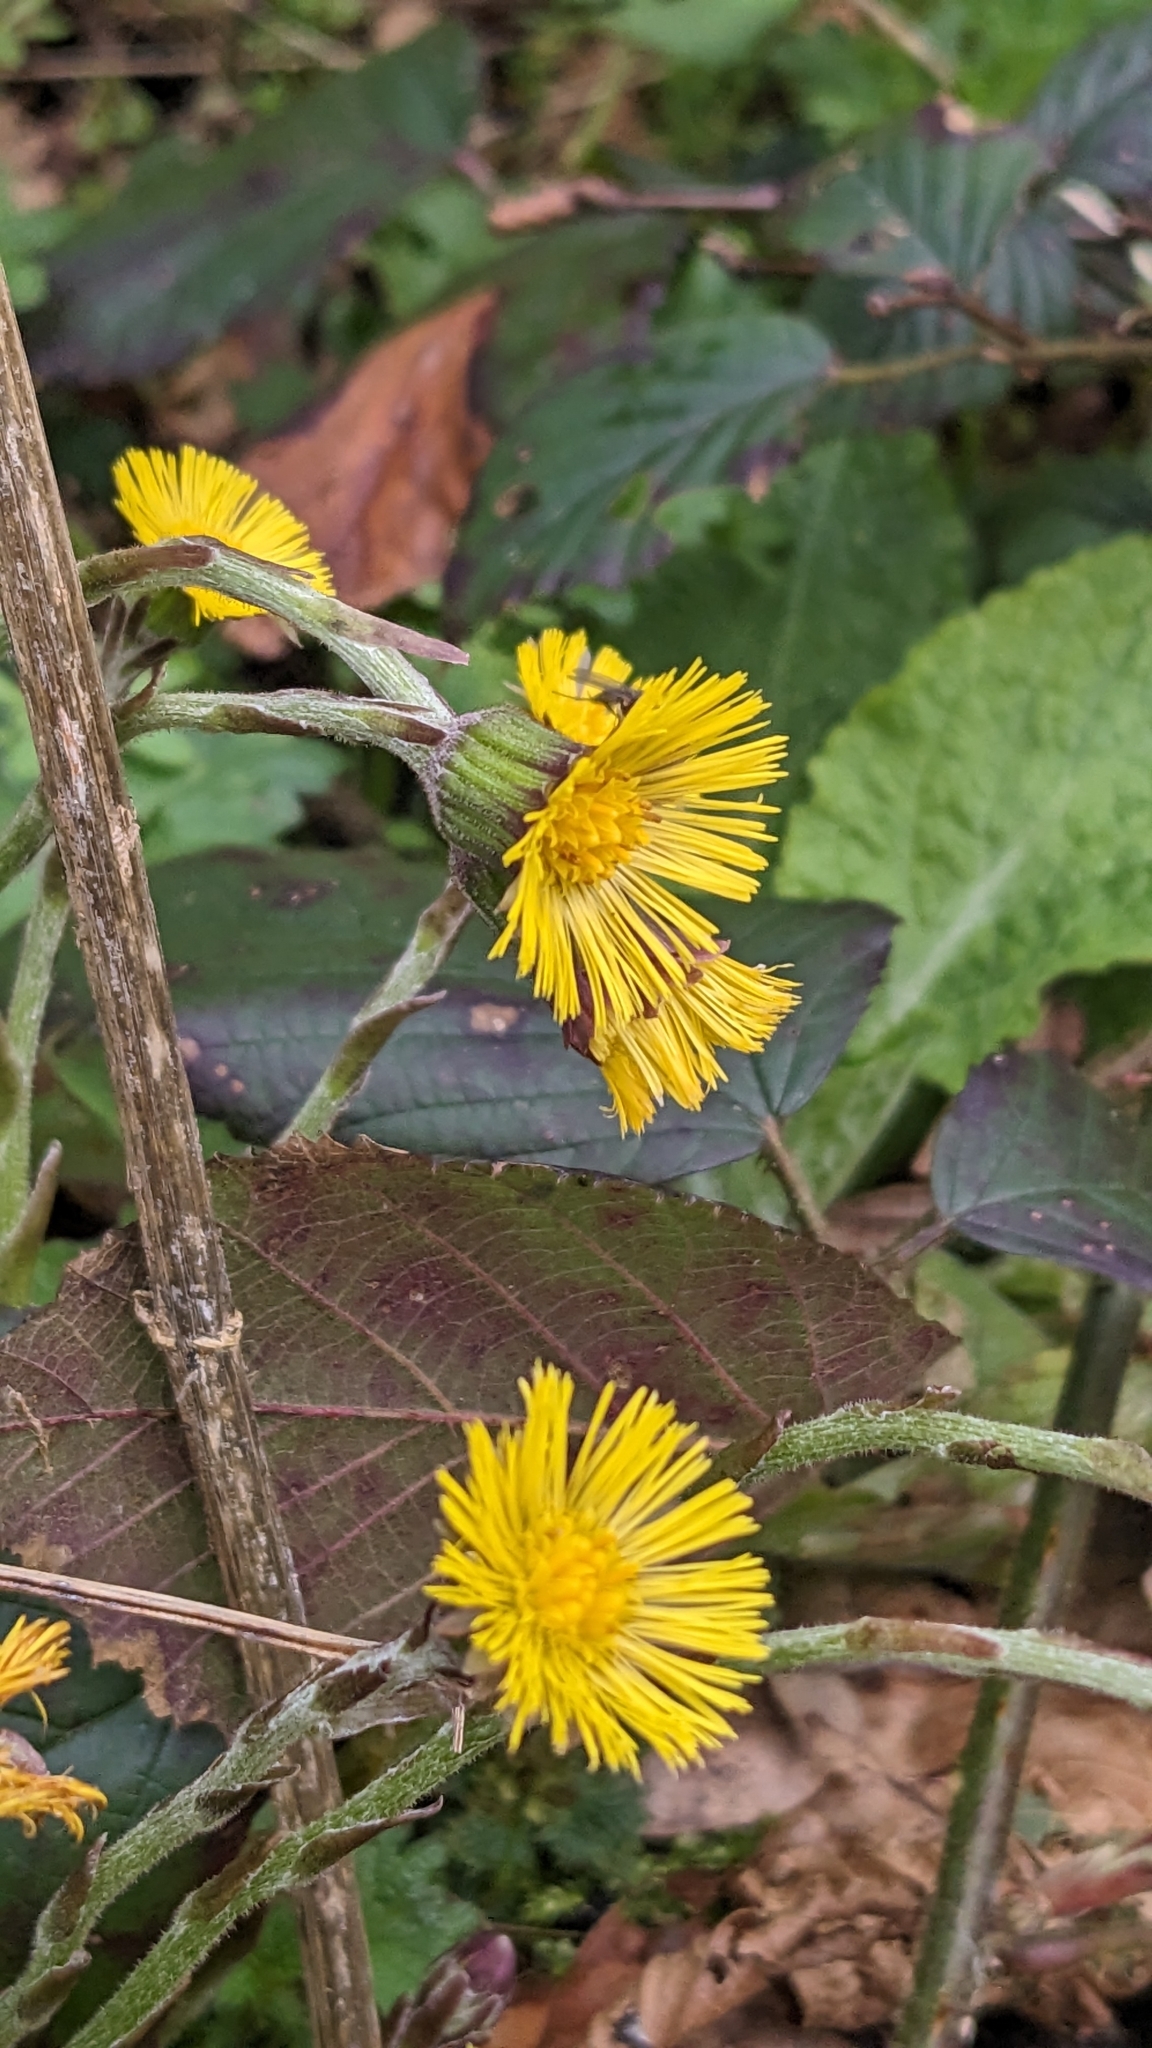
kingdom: Plantae
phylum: Tracheophyta
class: Magnoliopsida
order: Asterales
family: Asteraceae
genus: Tussilago
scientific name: Tussilago farfara
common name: Coltsfoot
